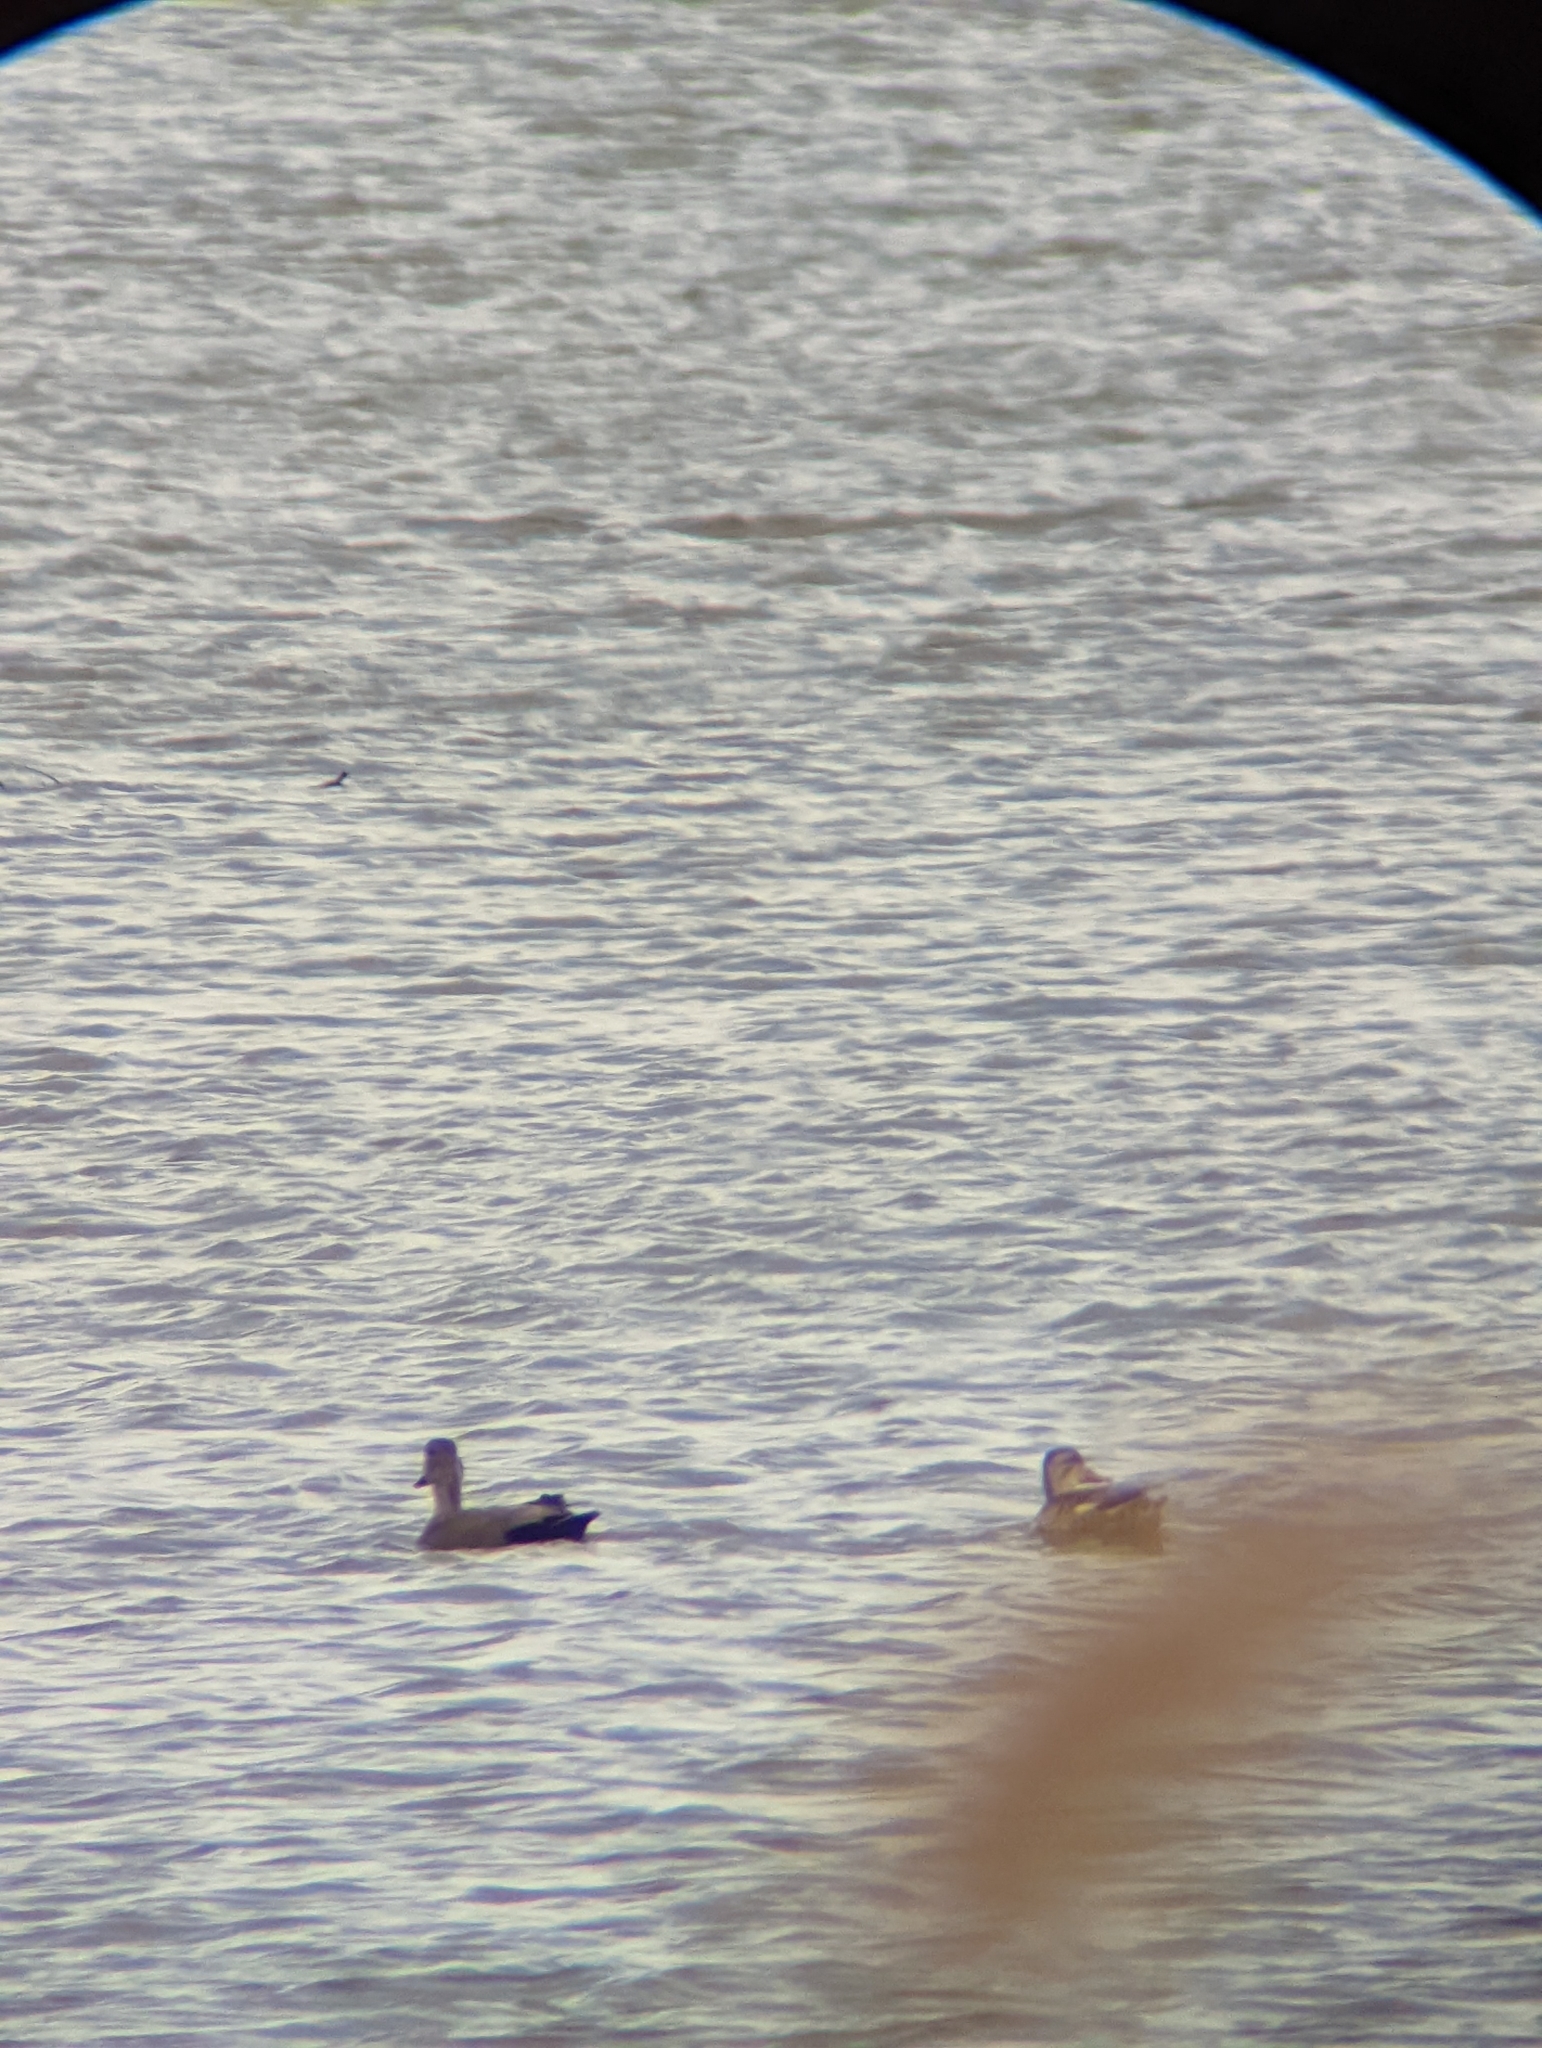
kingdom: Animalia
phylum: Chordata
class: Aves
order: Anseriformes
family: Anatidae
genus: Mareca
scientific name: Mareca strepera
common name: Gadwall
